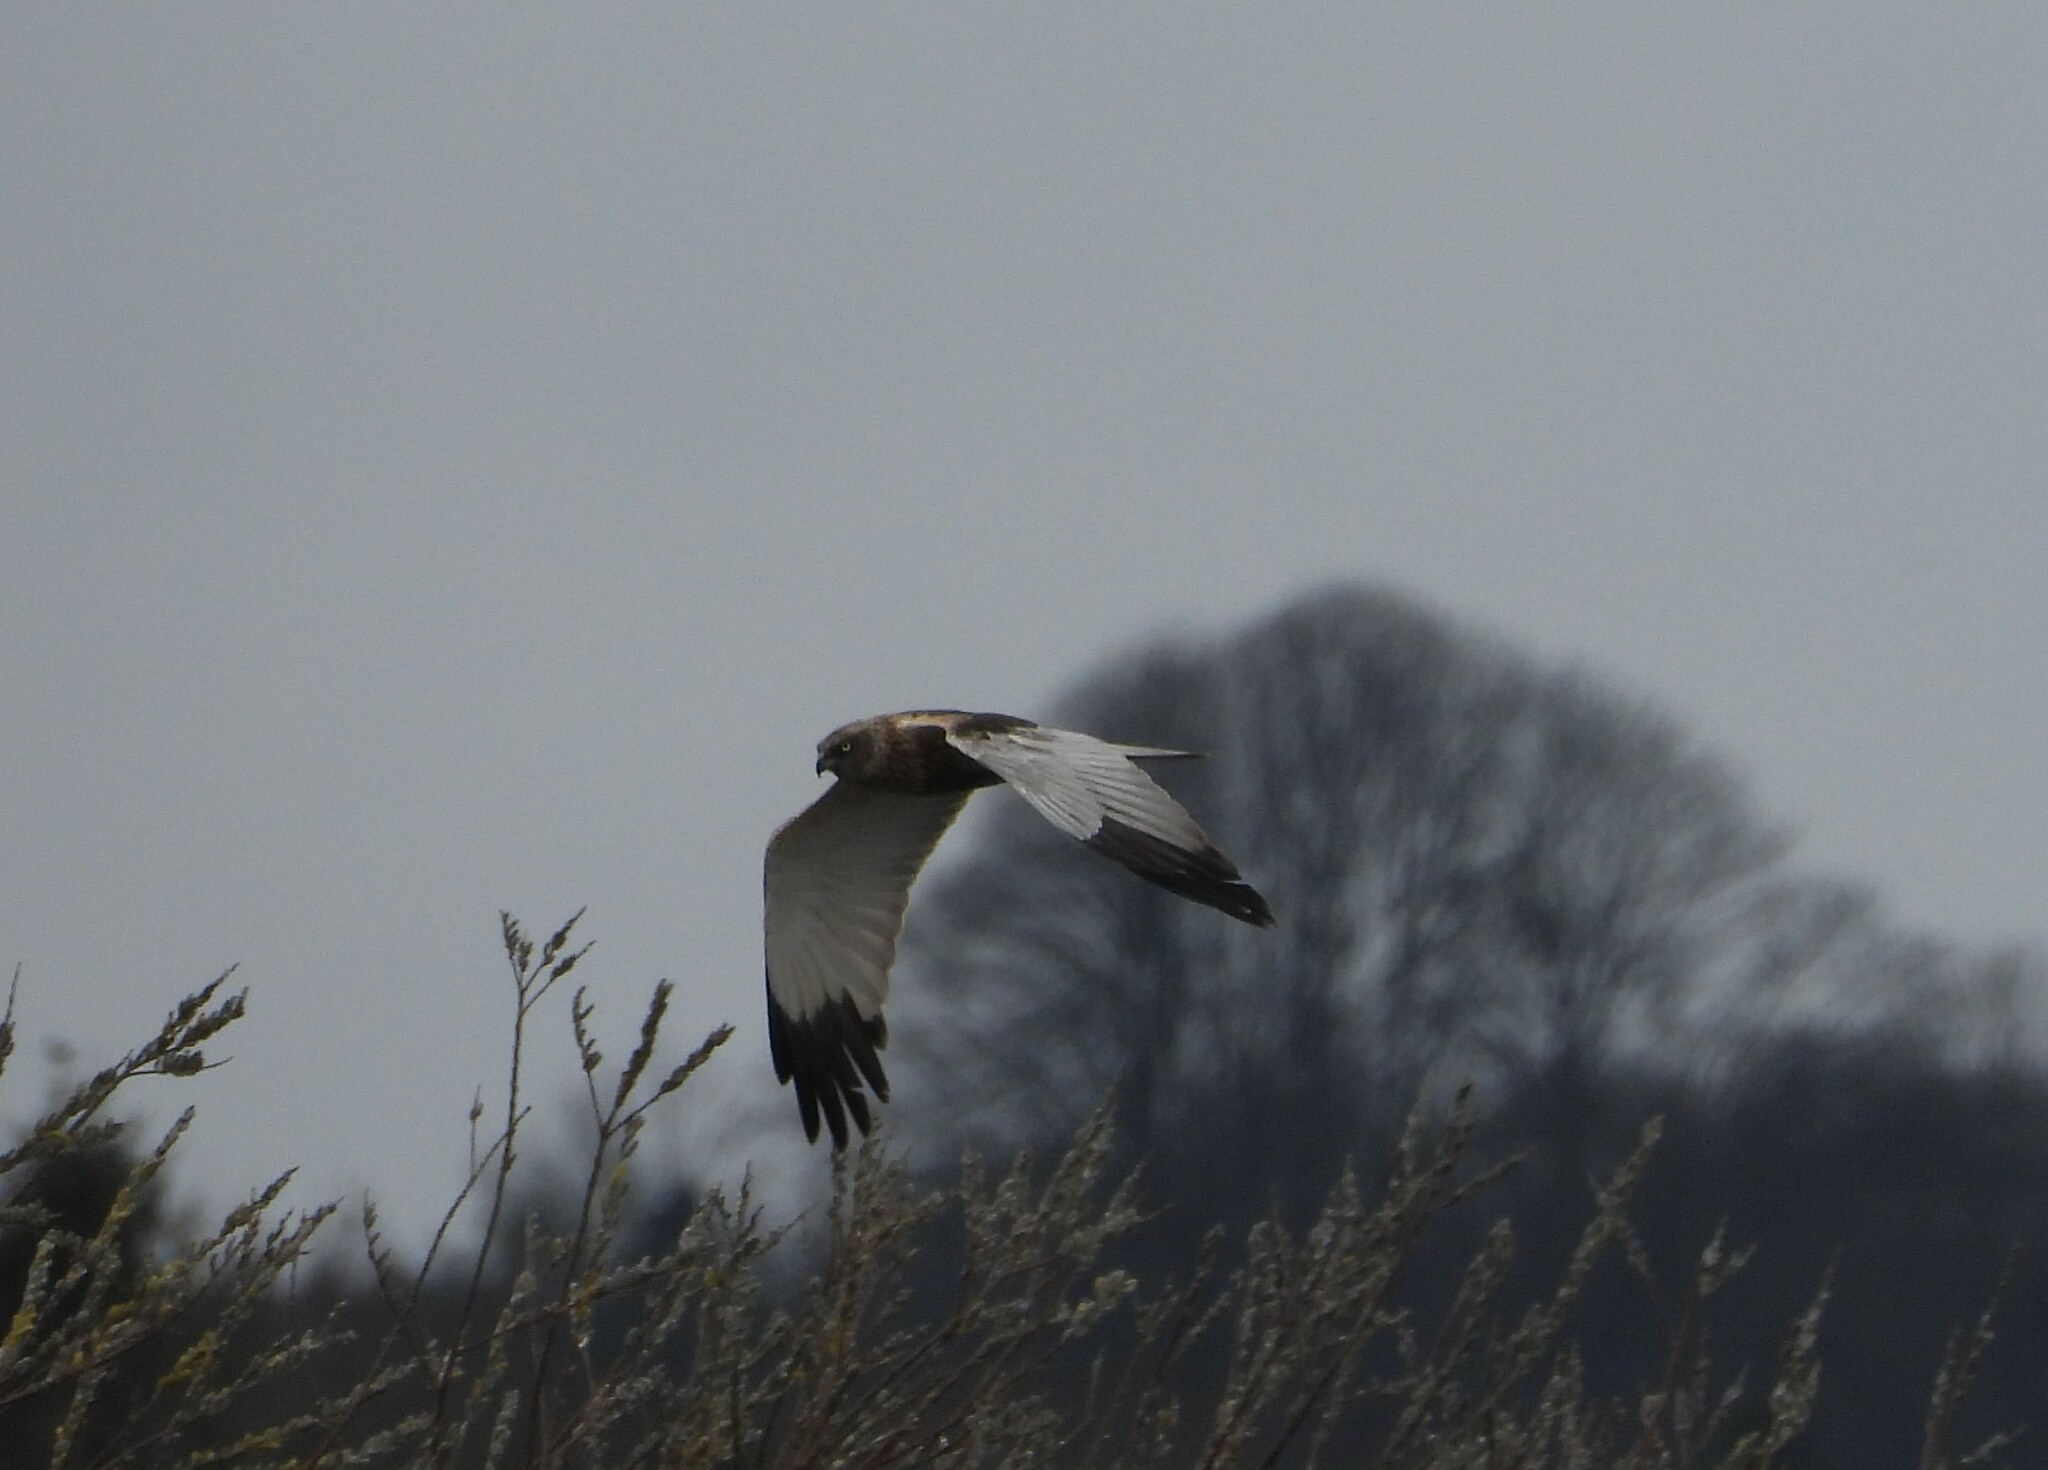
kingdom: Animalia
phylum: Chordata
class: Aves
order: Accipitriformes
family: Accipitridae
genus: Circus
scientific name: Circus aeruginosus
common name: Western marsh harrier
